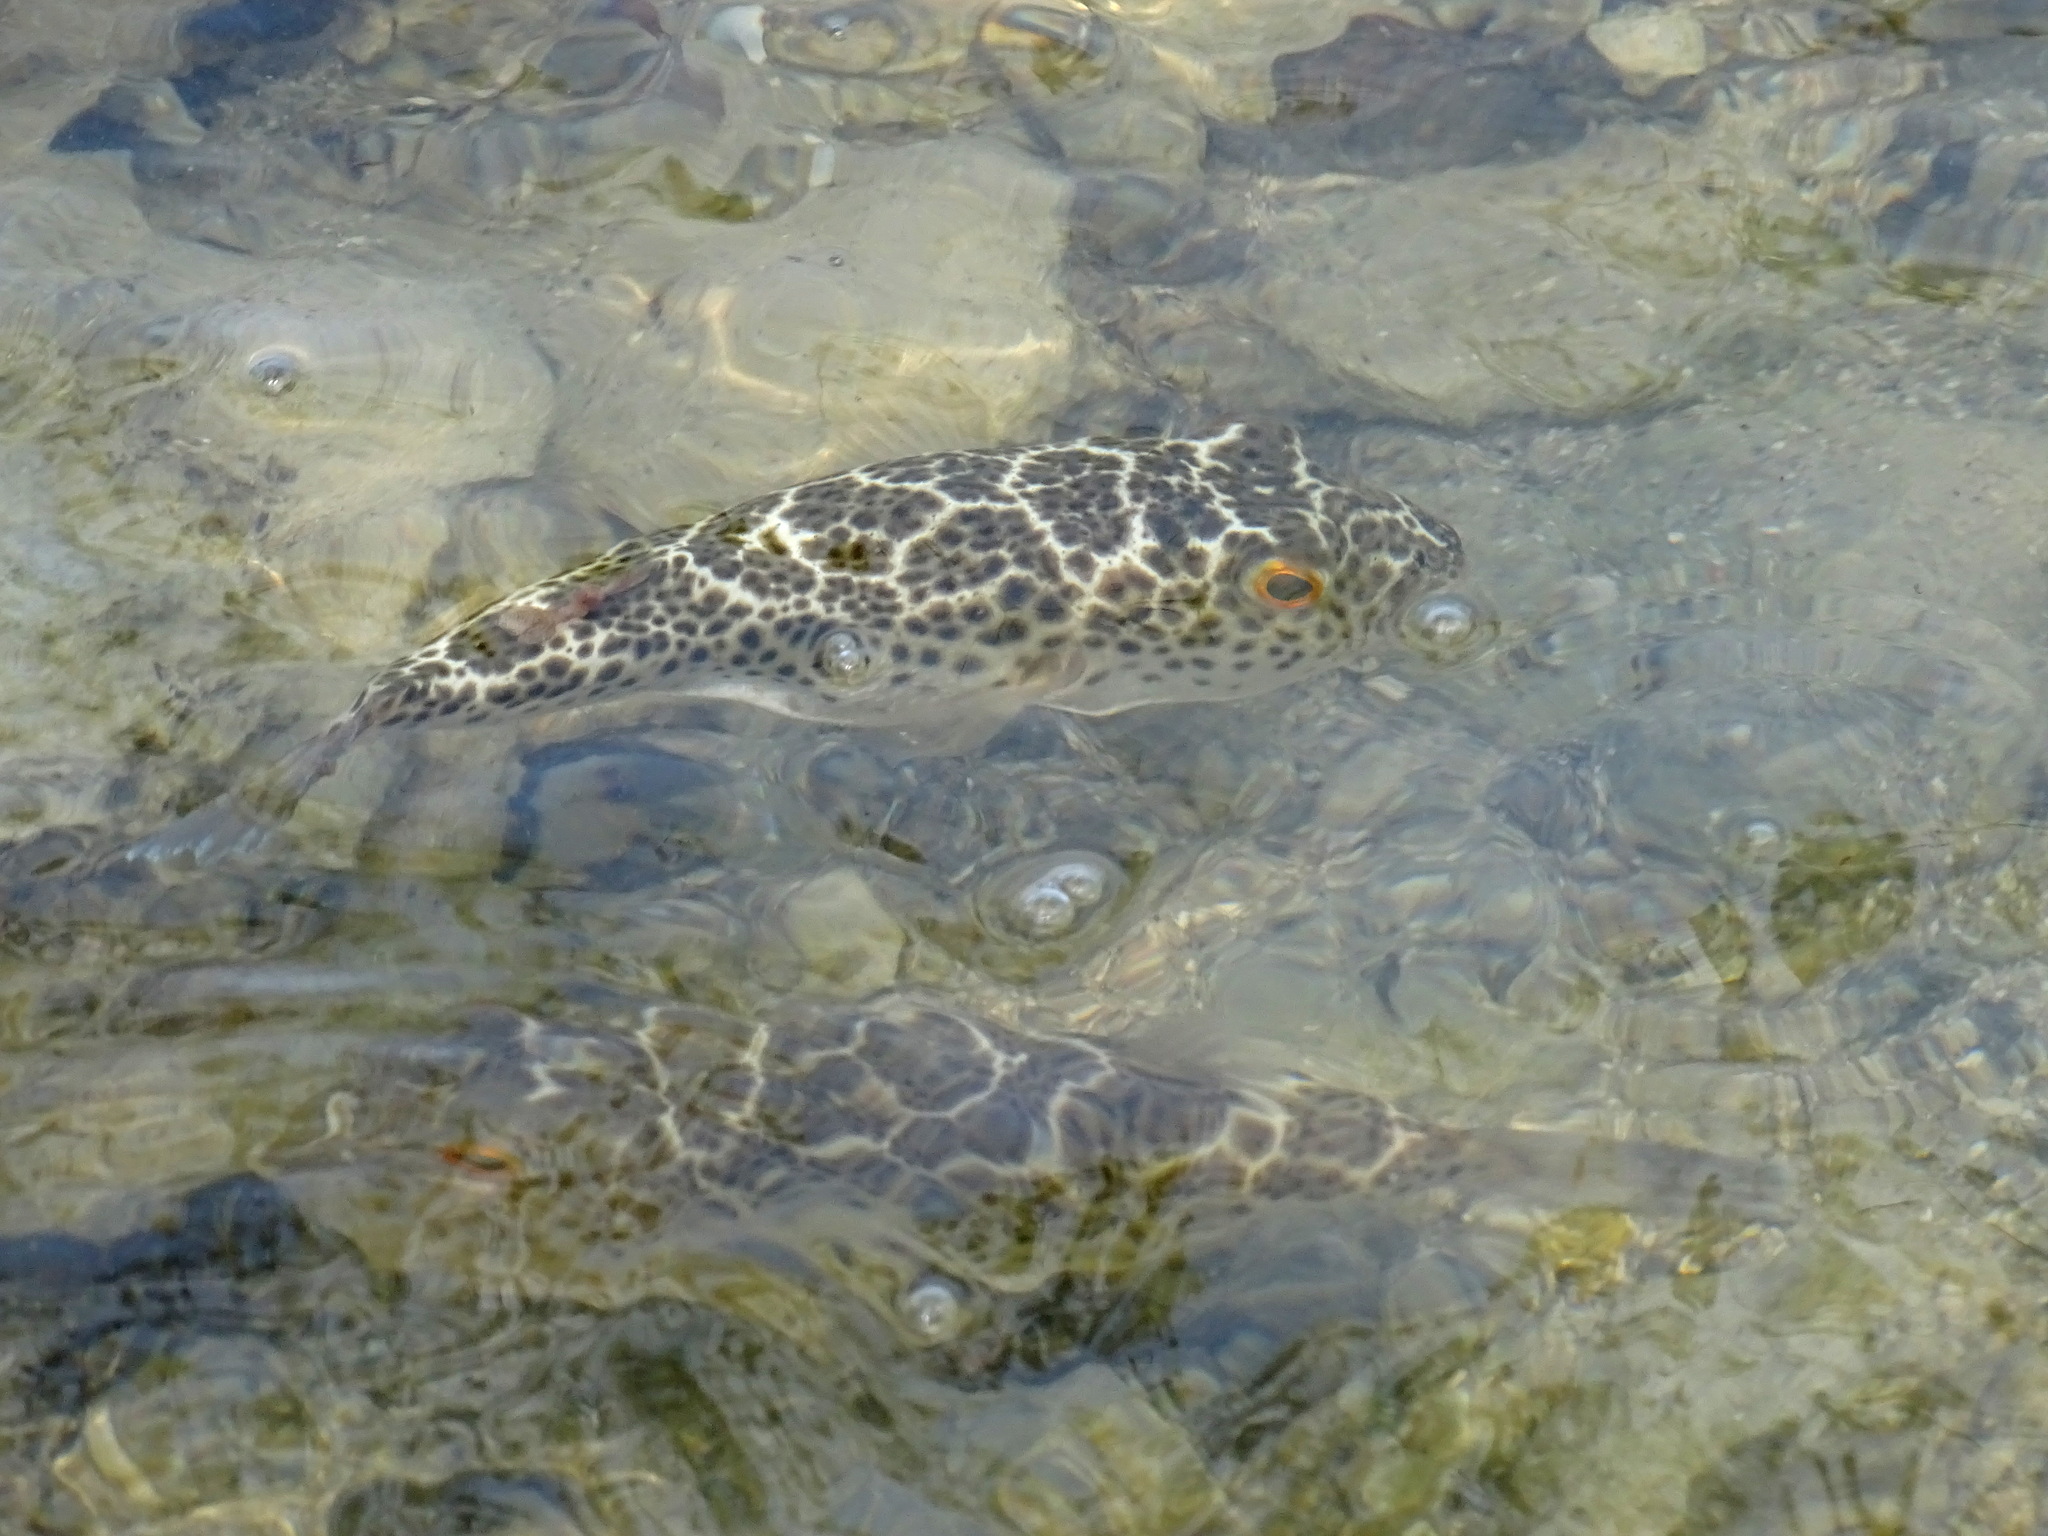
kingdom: Animalia
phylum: Chordata
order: Tetraodontiformes
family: Tetraodontidae
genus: Sphoeroides
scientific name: Sphoeroides testudineus
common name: Checkered puffer
